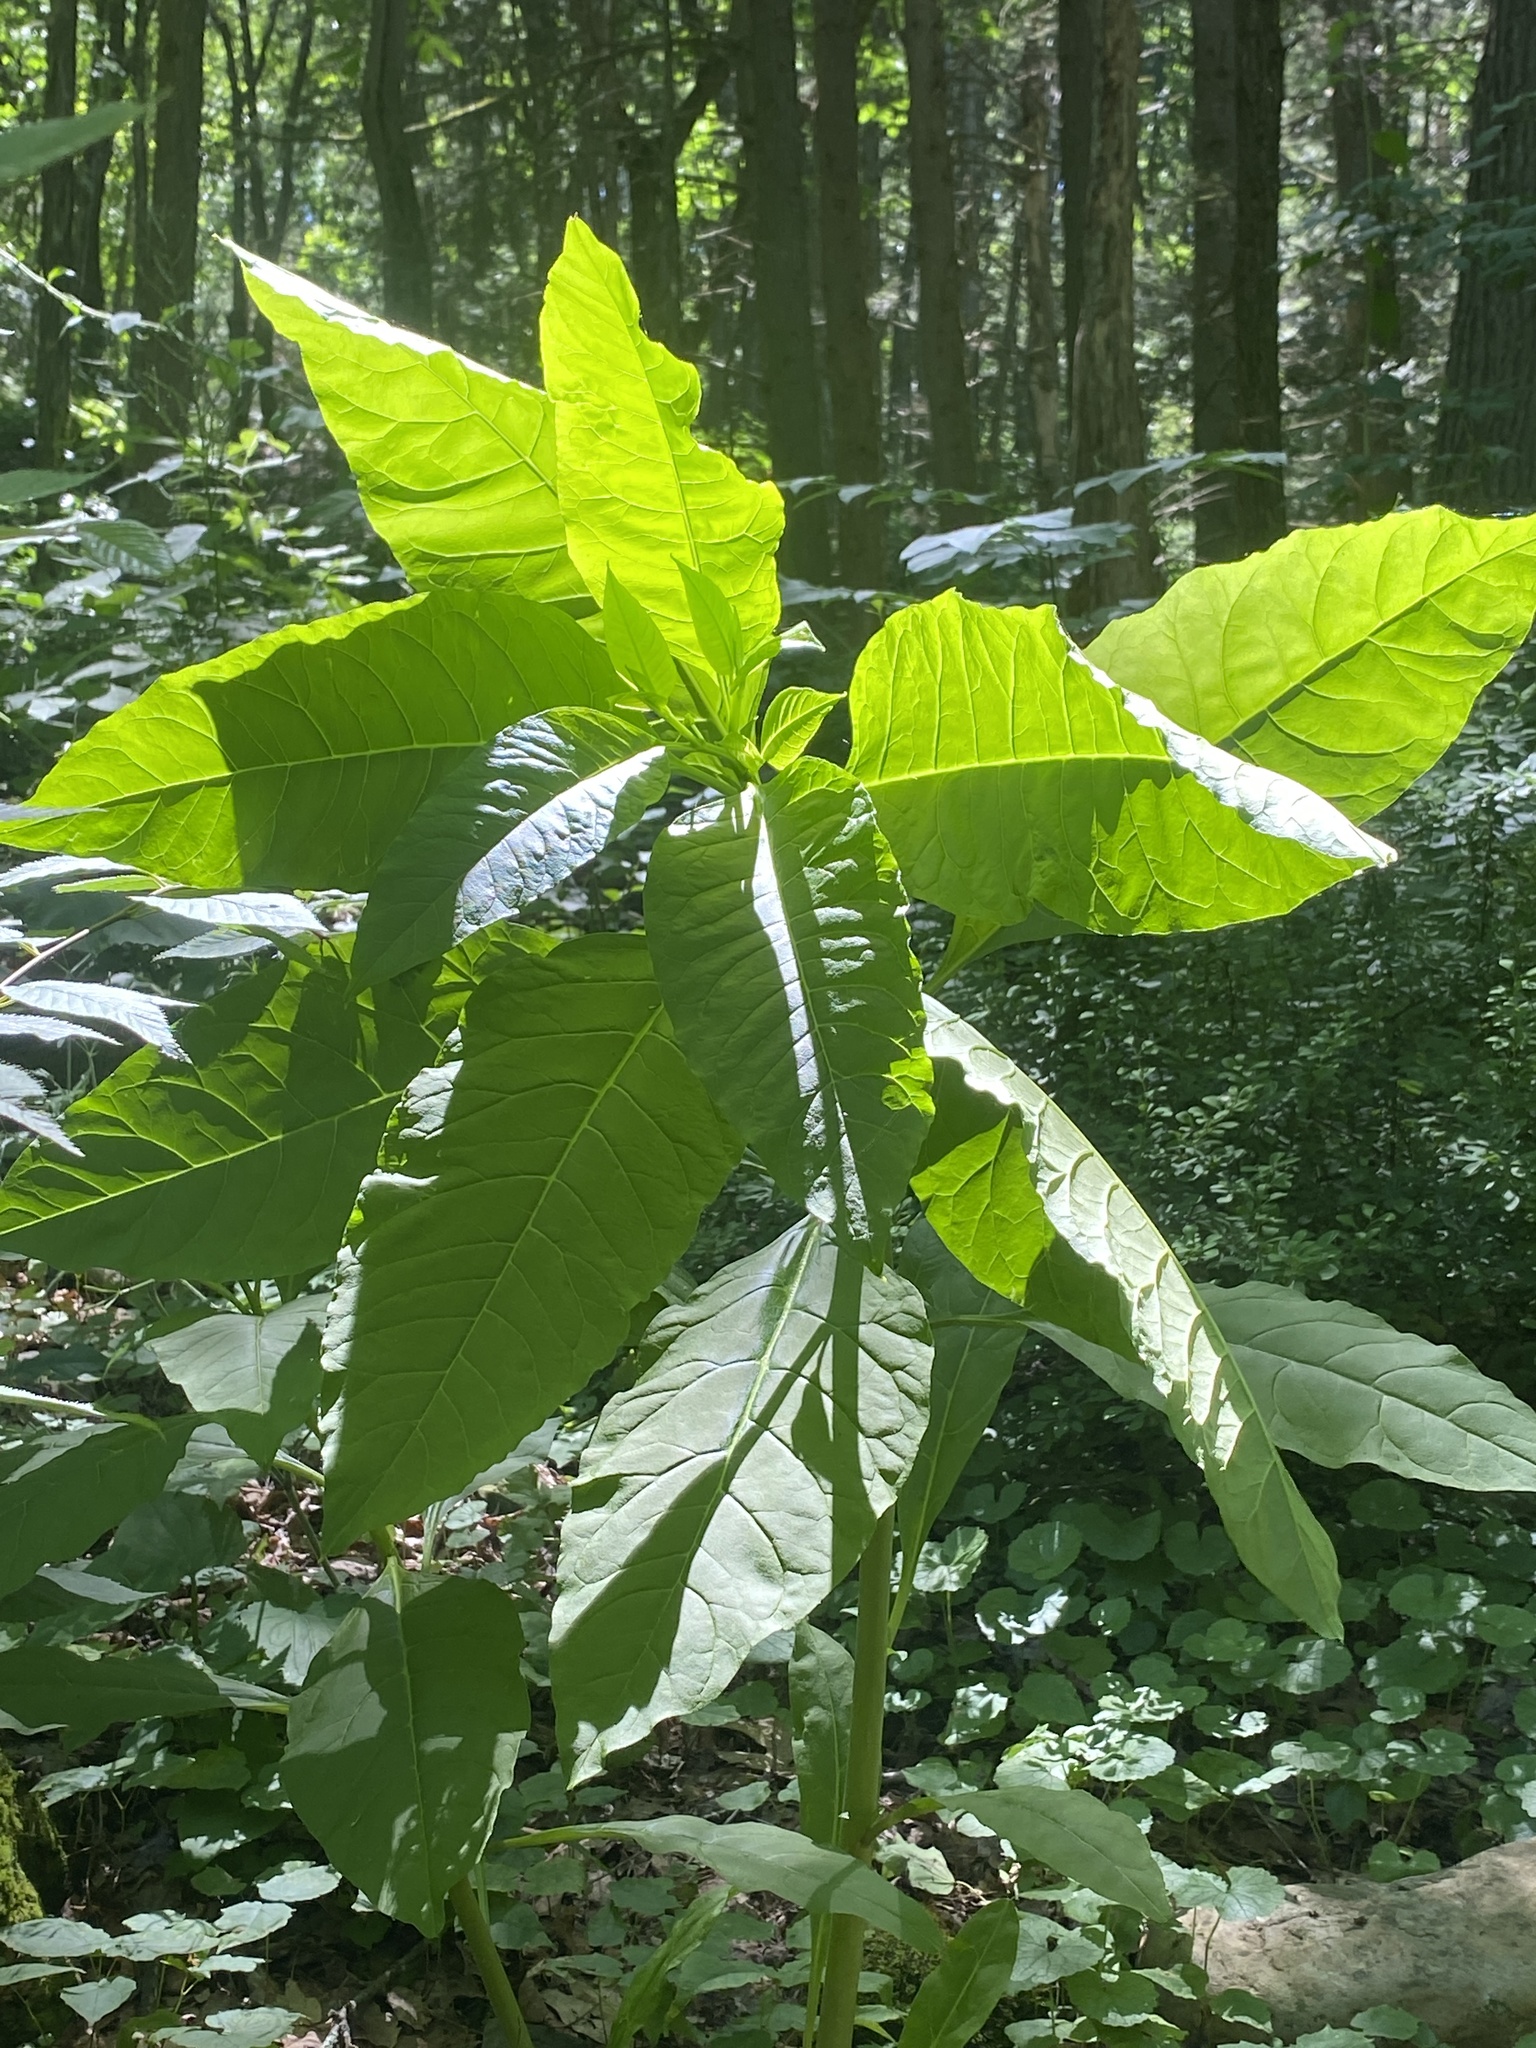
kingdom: Plantae
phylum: Tracheophyta
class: Magnoliopsida
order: Caryophyllales
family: Phytolaccaceae
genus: Phytolacca
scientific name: Phytolacca americana
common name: American pokeweed
